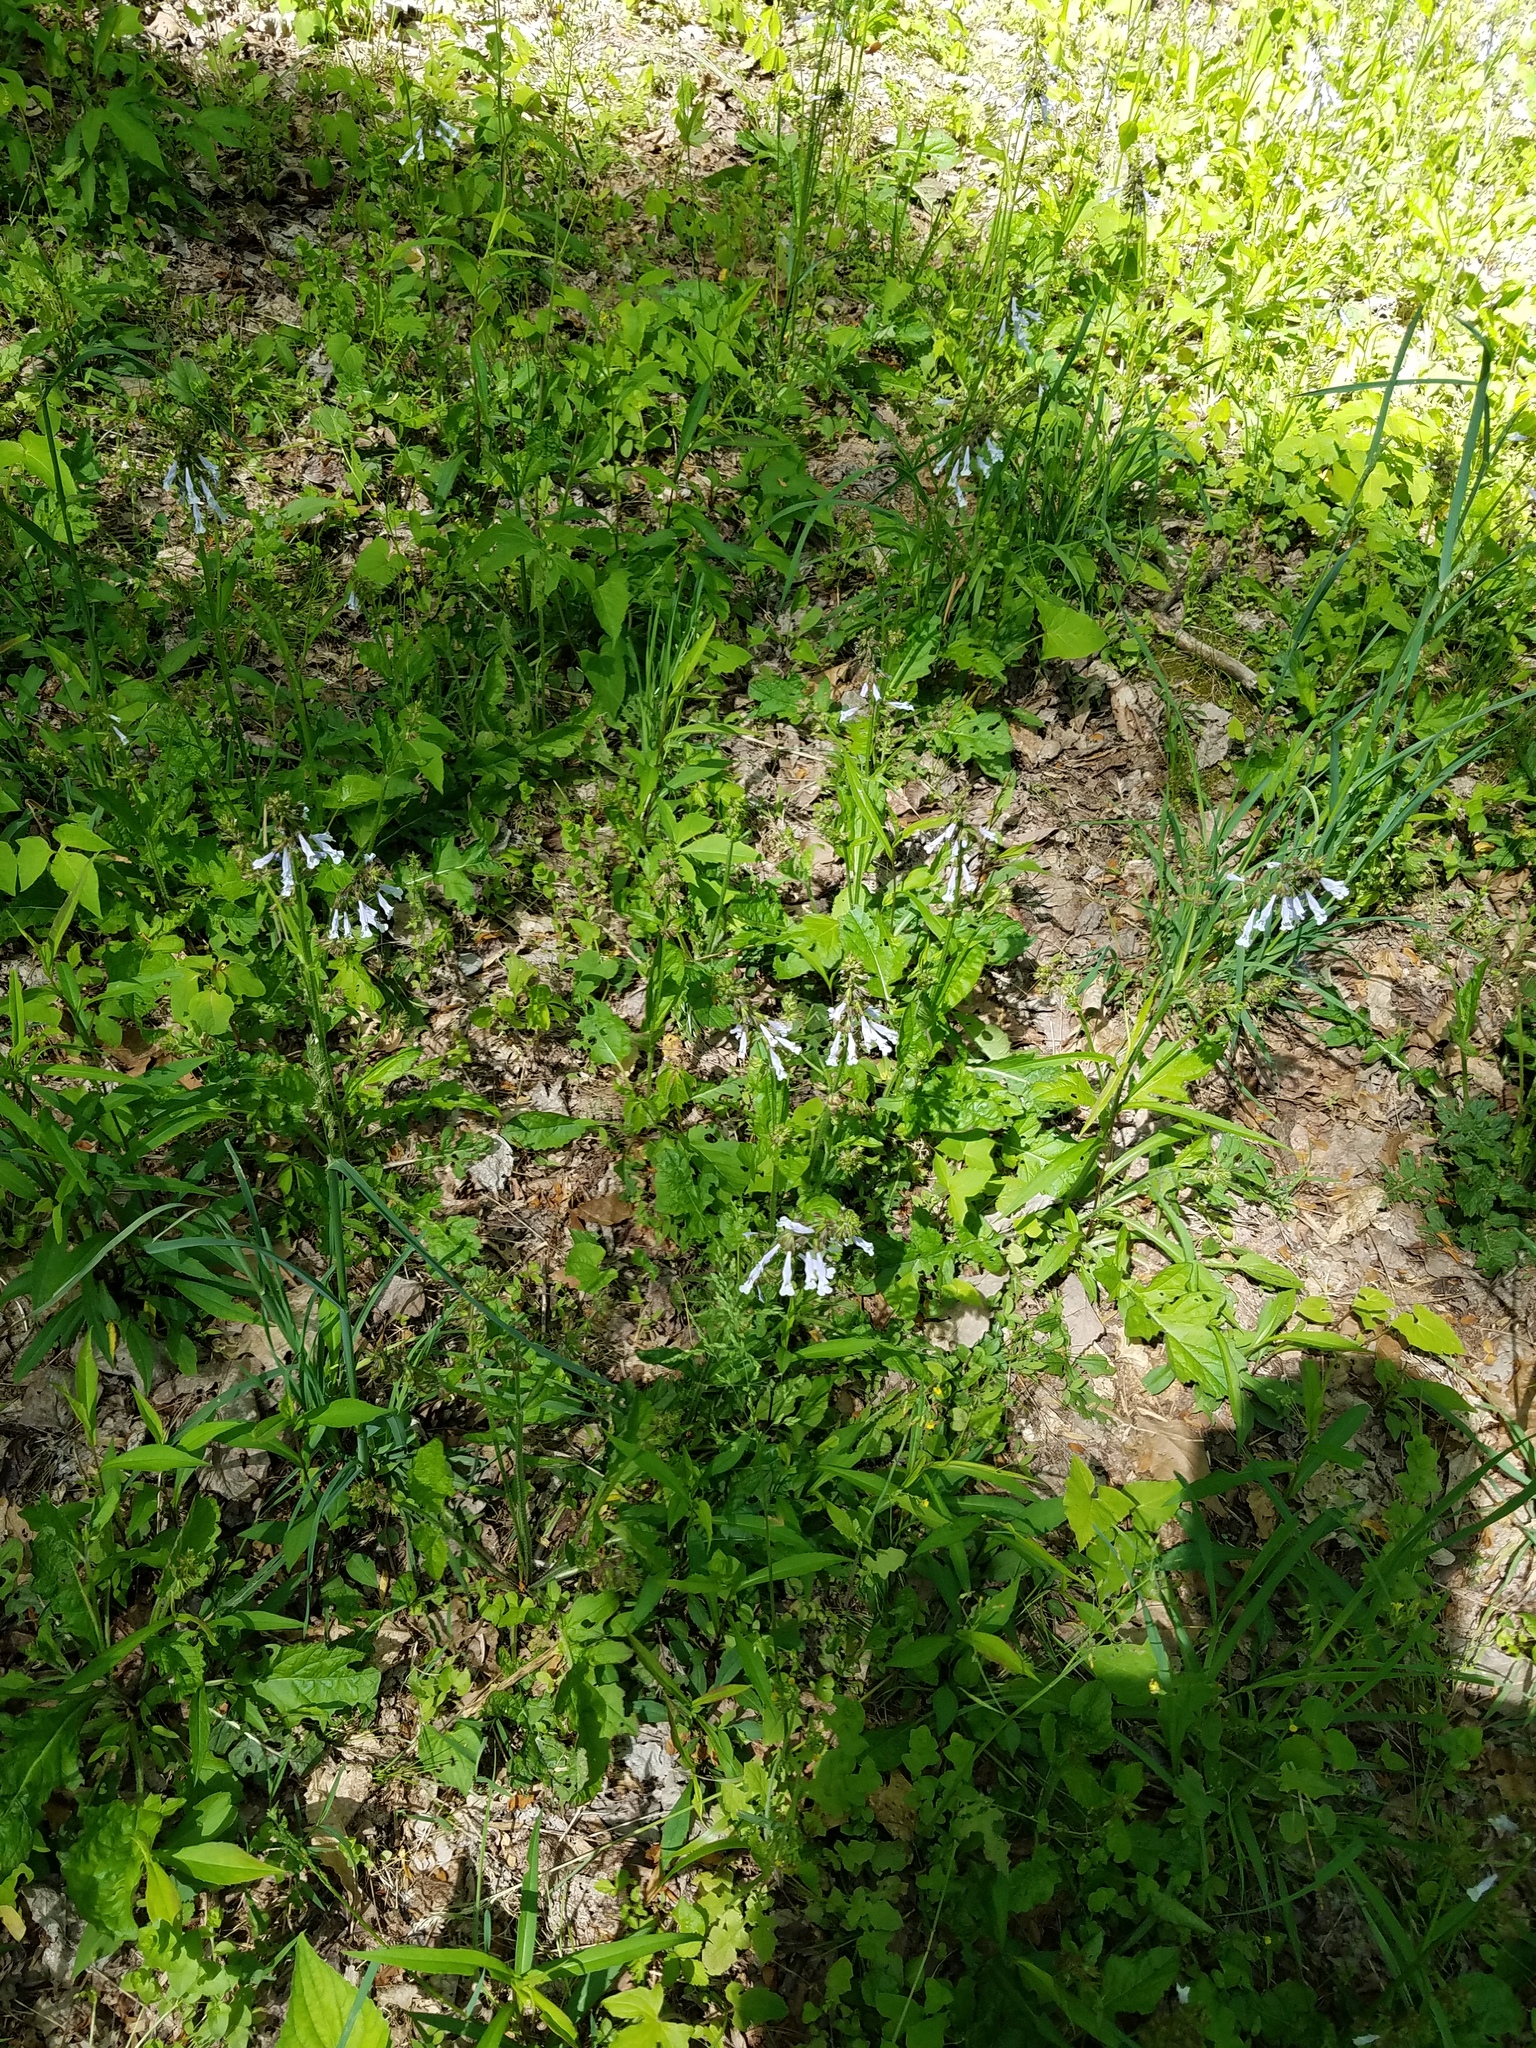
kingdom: Plantae
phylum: Tracheophyta
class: Magnoliopsida
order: Lamiales
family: Lamiaceae
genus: Salvia
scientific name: Salvia lyrata
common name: Cancerweed
